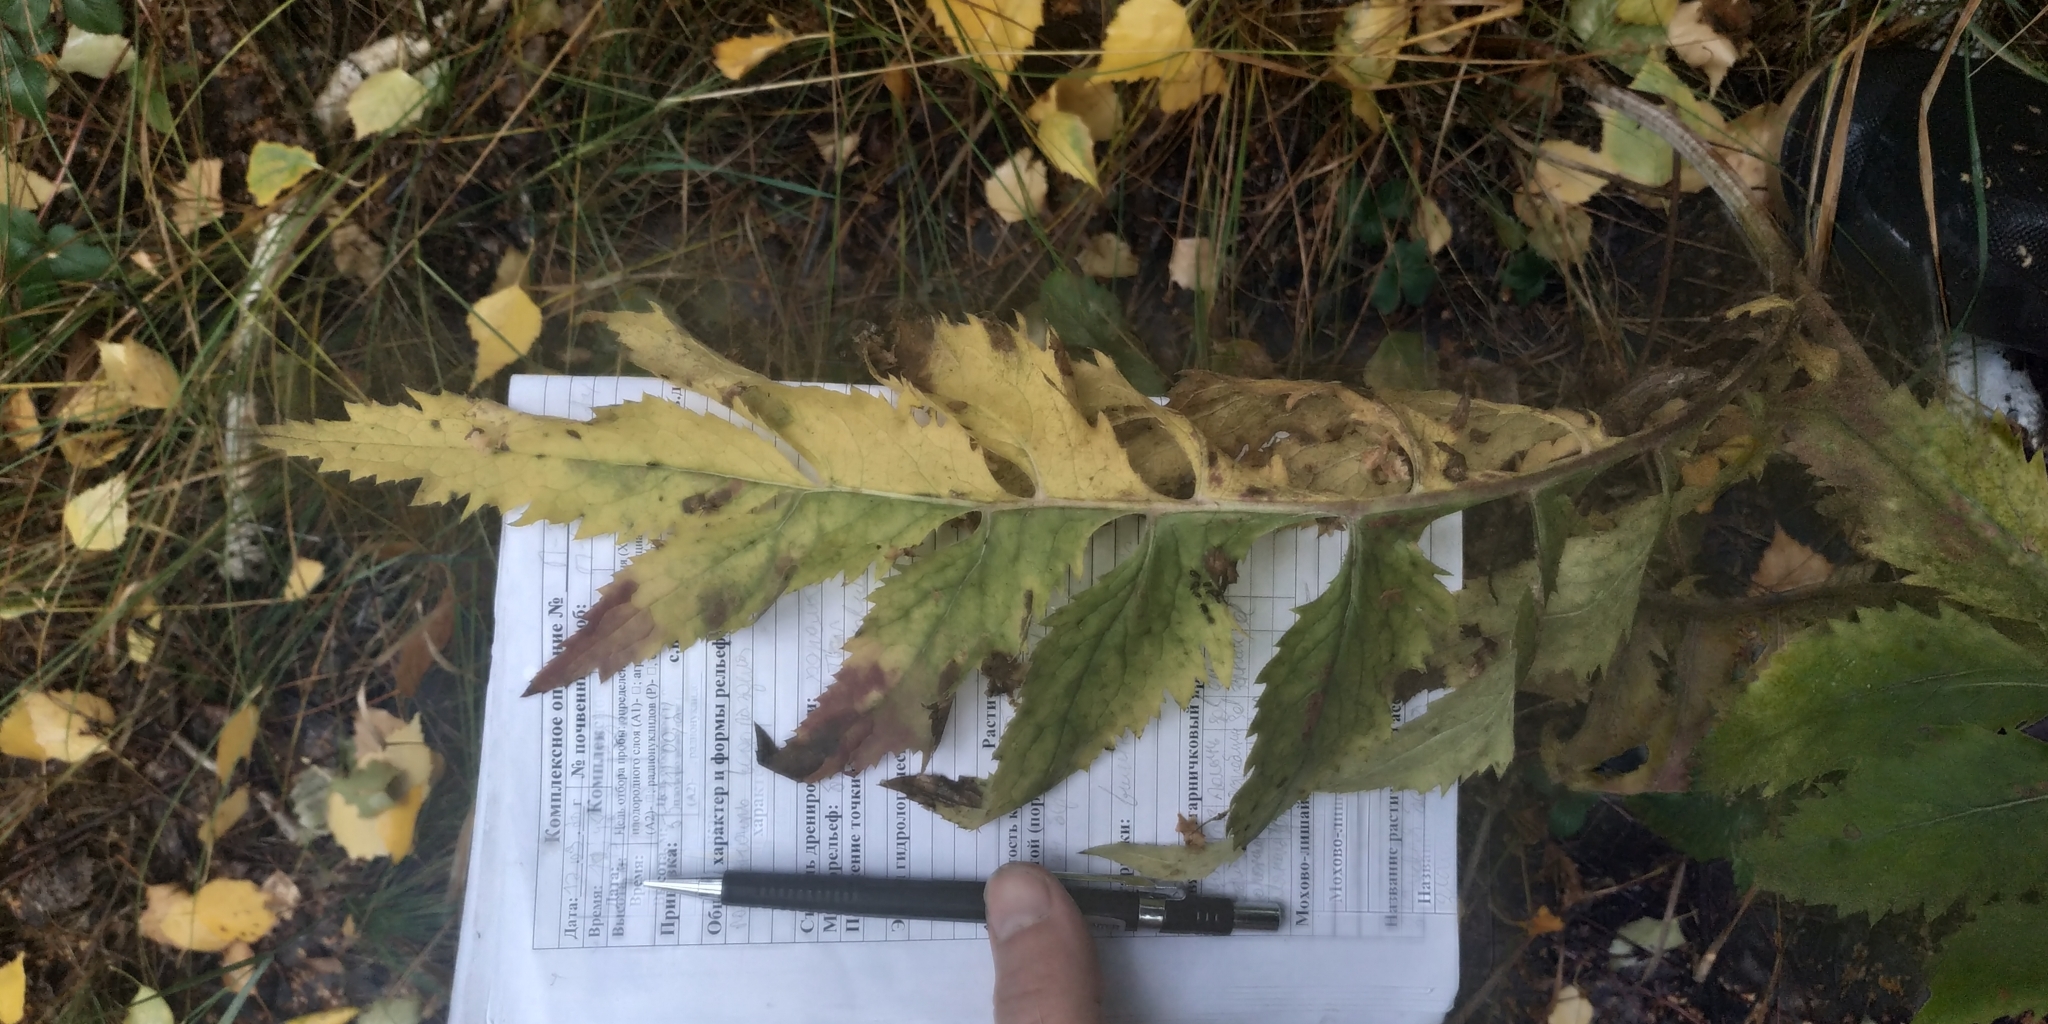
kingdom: Plantae
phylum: Tracheophyta
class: Magnoliopsida
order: Asterales
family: Asteraceae
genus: Serratula
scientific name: Serratula coronata
